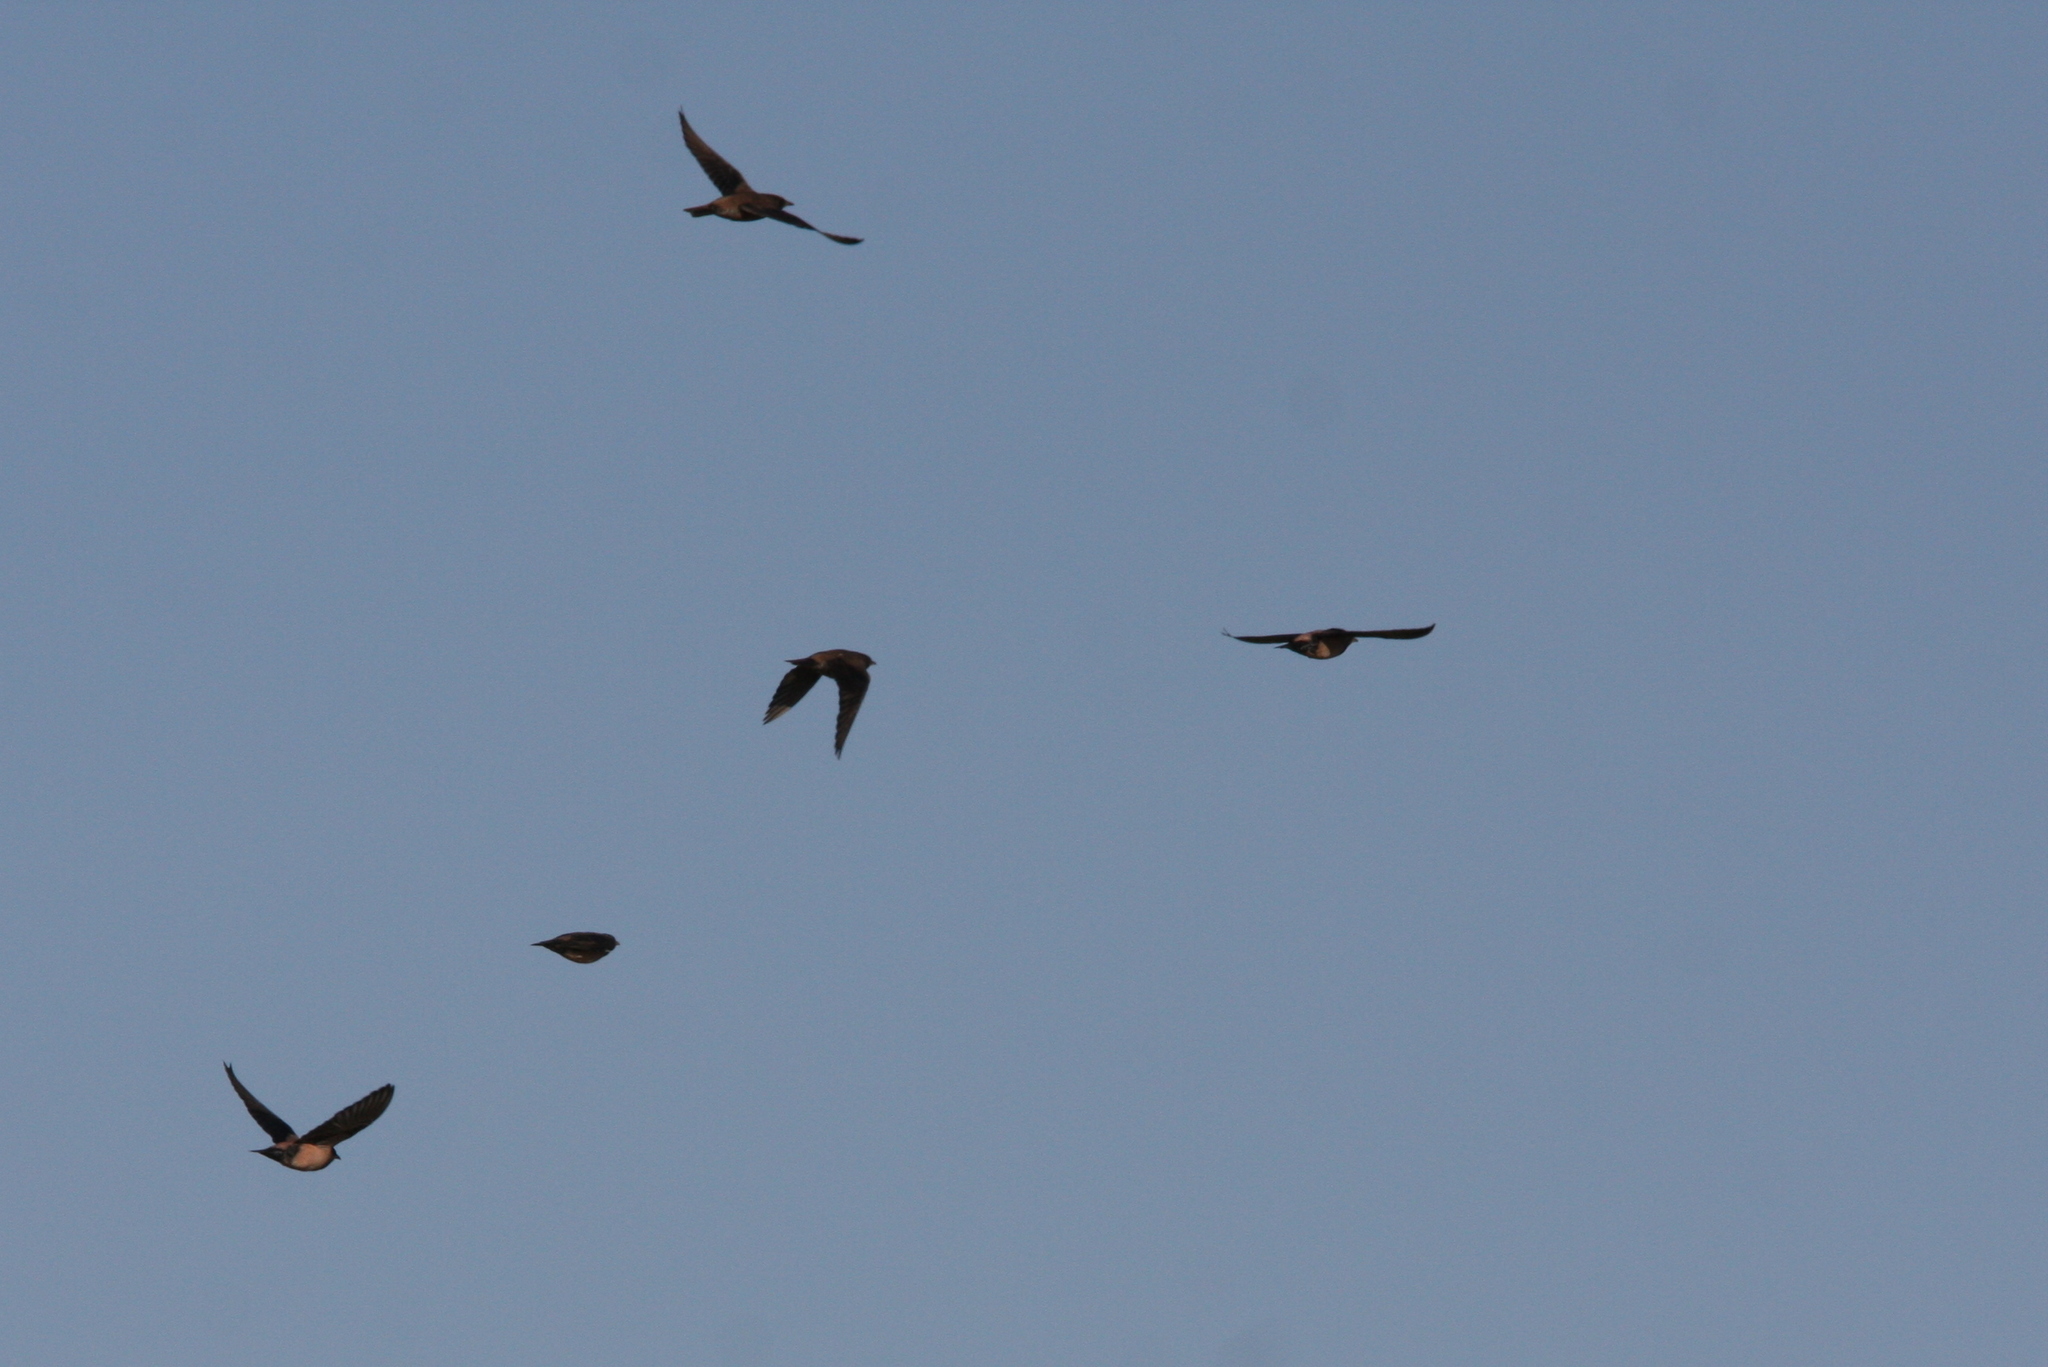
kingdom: Animalia
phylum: Chordata
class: Aves
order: Passeriformes
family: Sturnidae
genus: Pastor
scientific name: Pastor roseus
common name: Rosy starling
